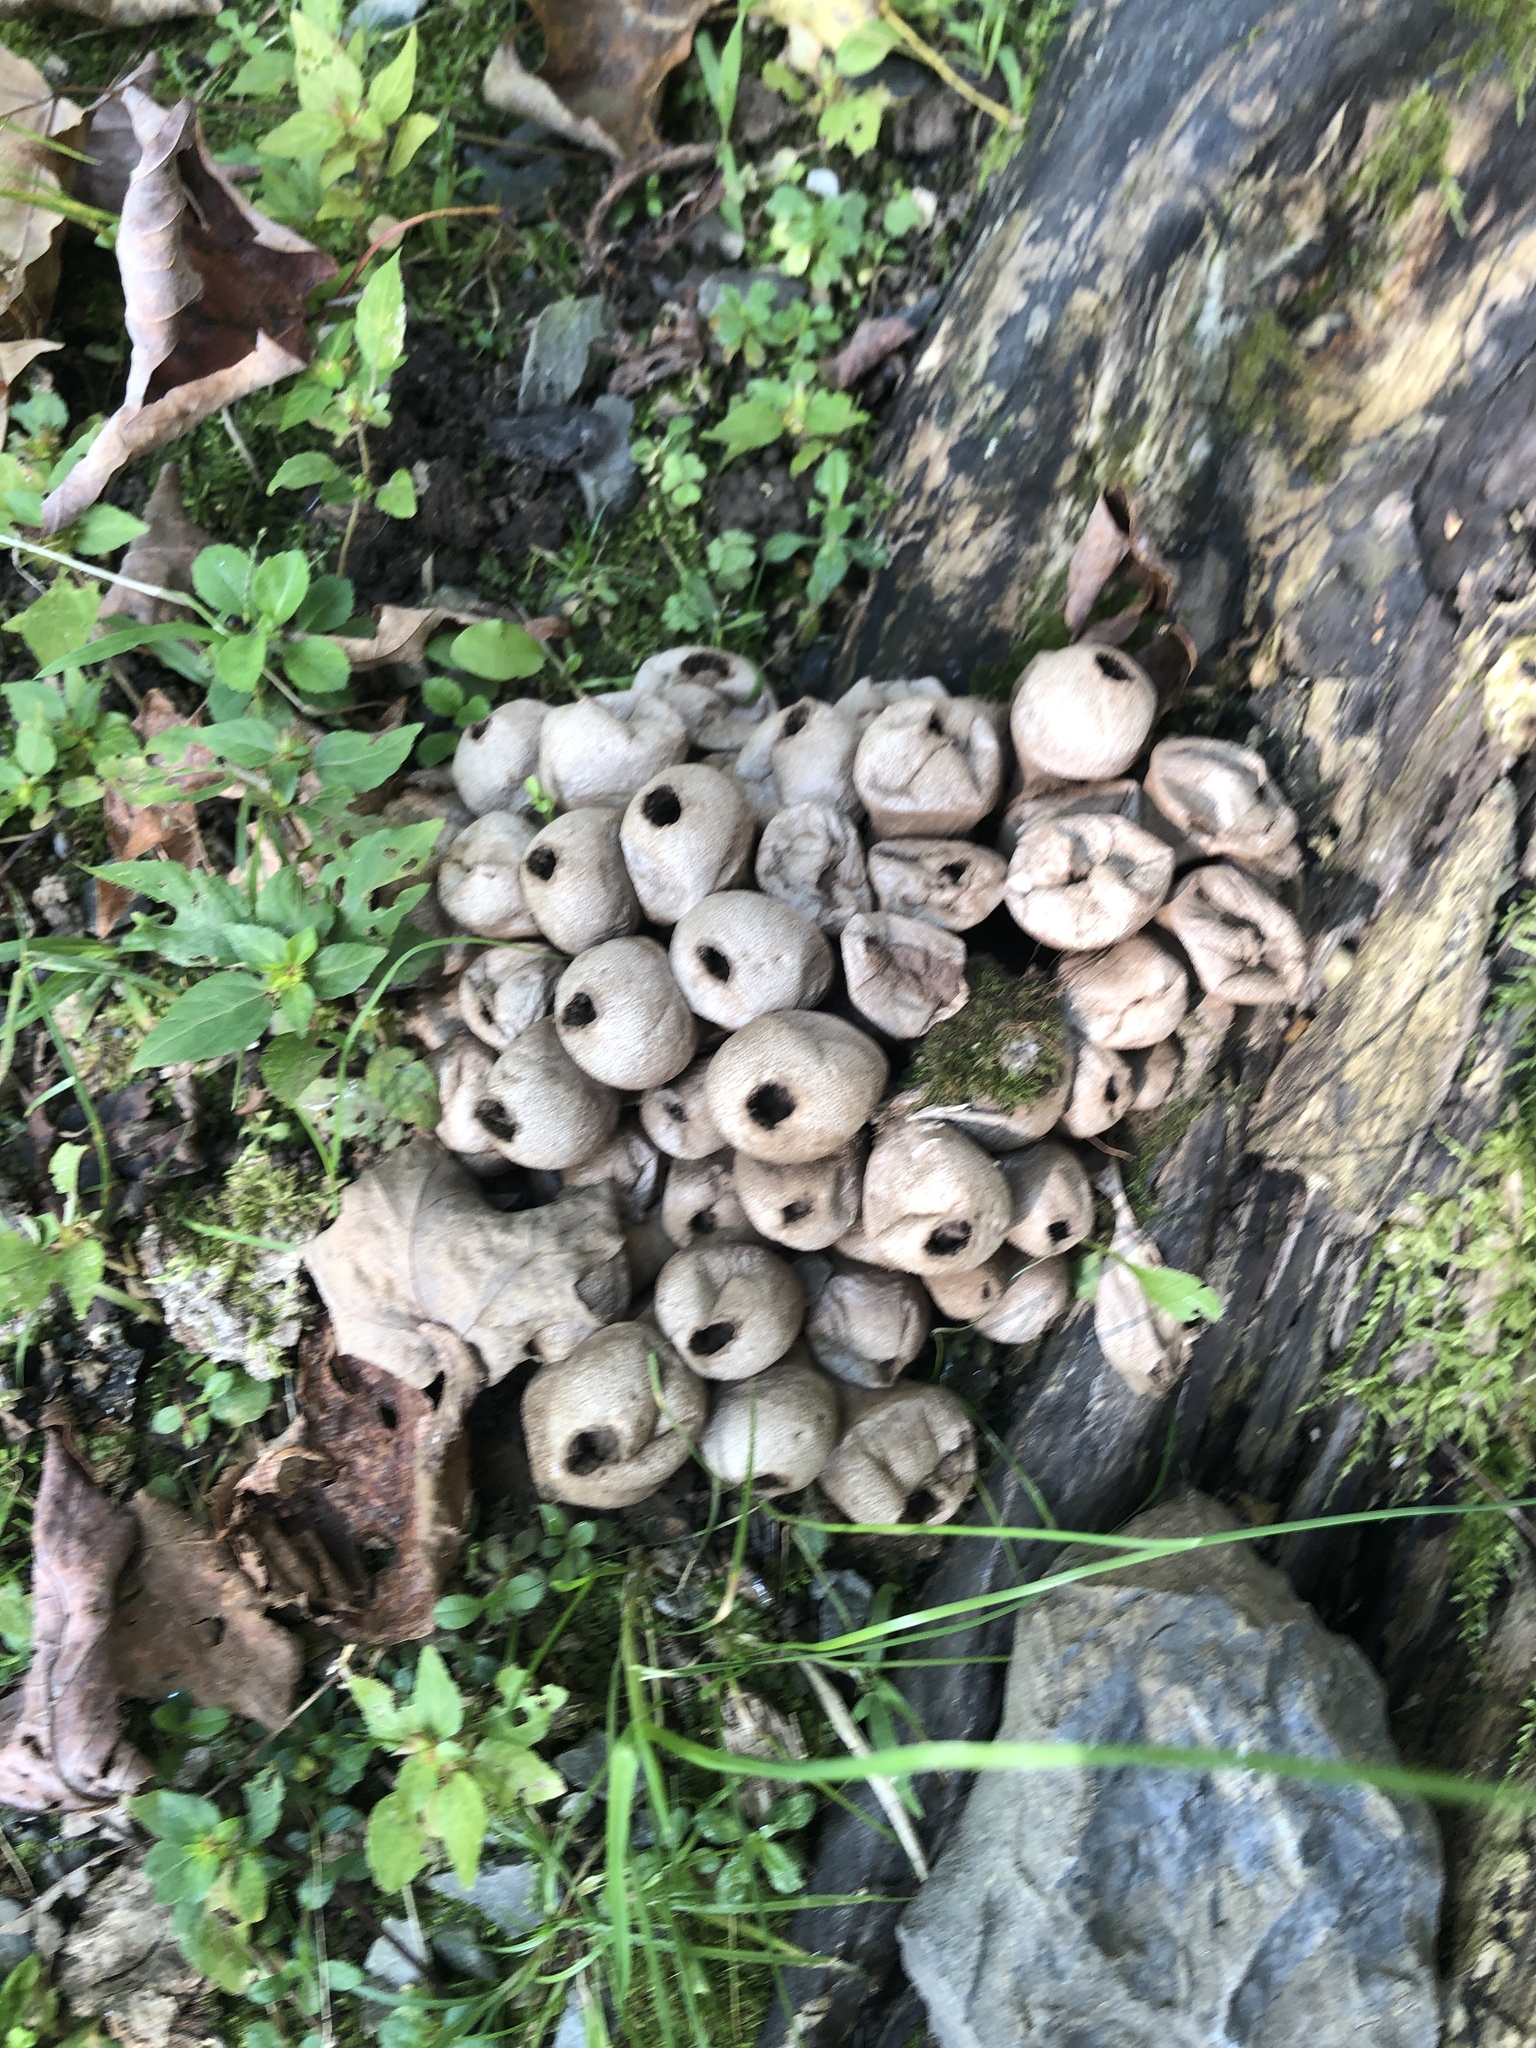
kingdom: Fungi
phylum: Basidiomycota
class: Agaricomycetes
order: Agaricales
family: Lycoperdaceae
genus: Apioperdon
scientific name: Apioperdon pyriforme
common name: Pear-shaped puffball
